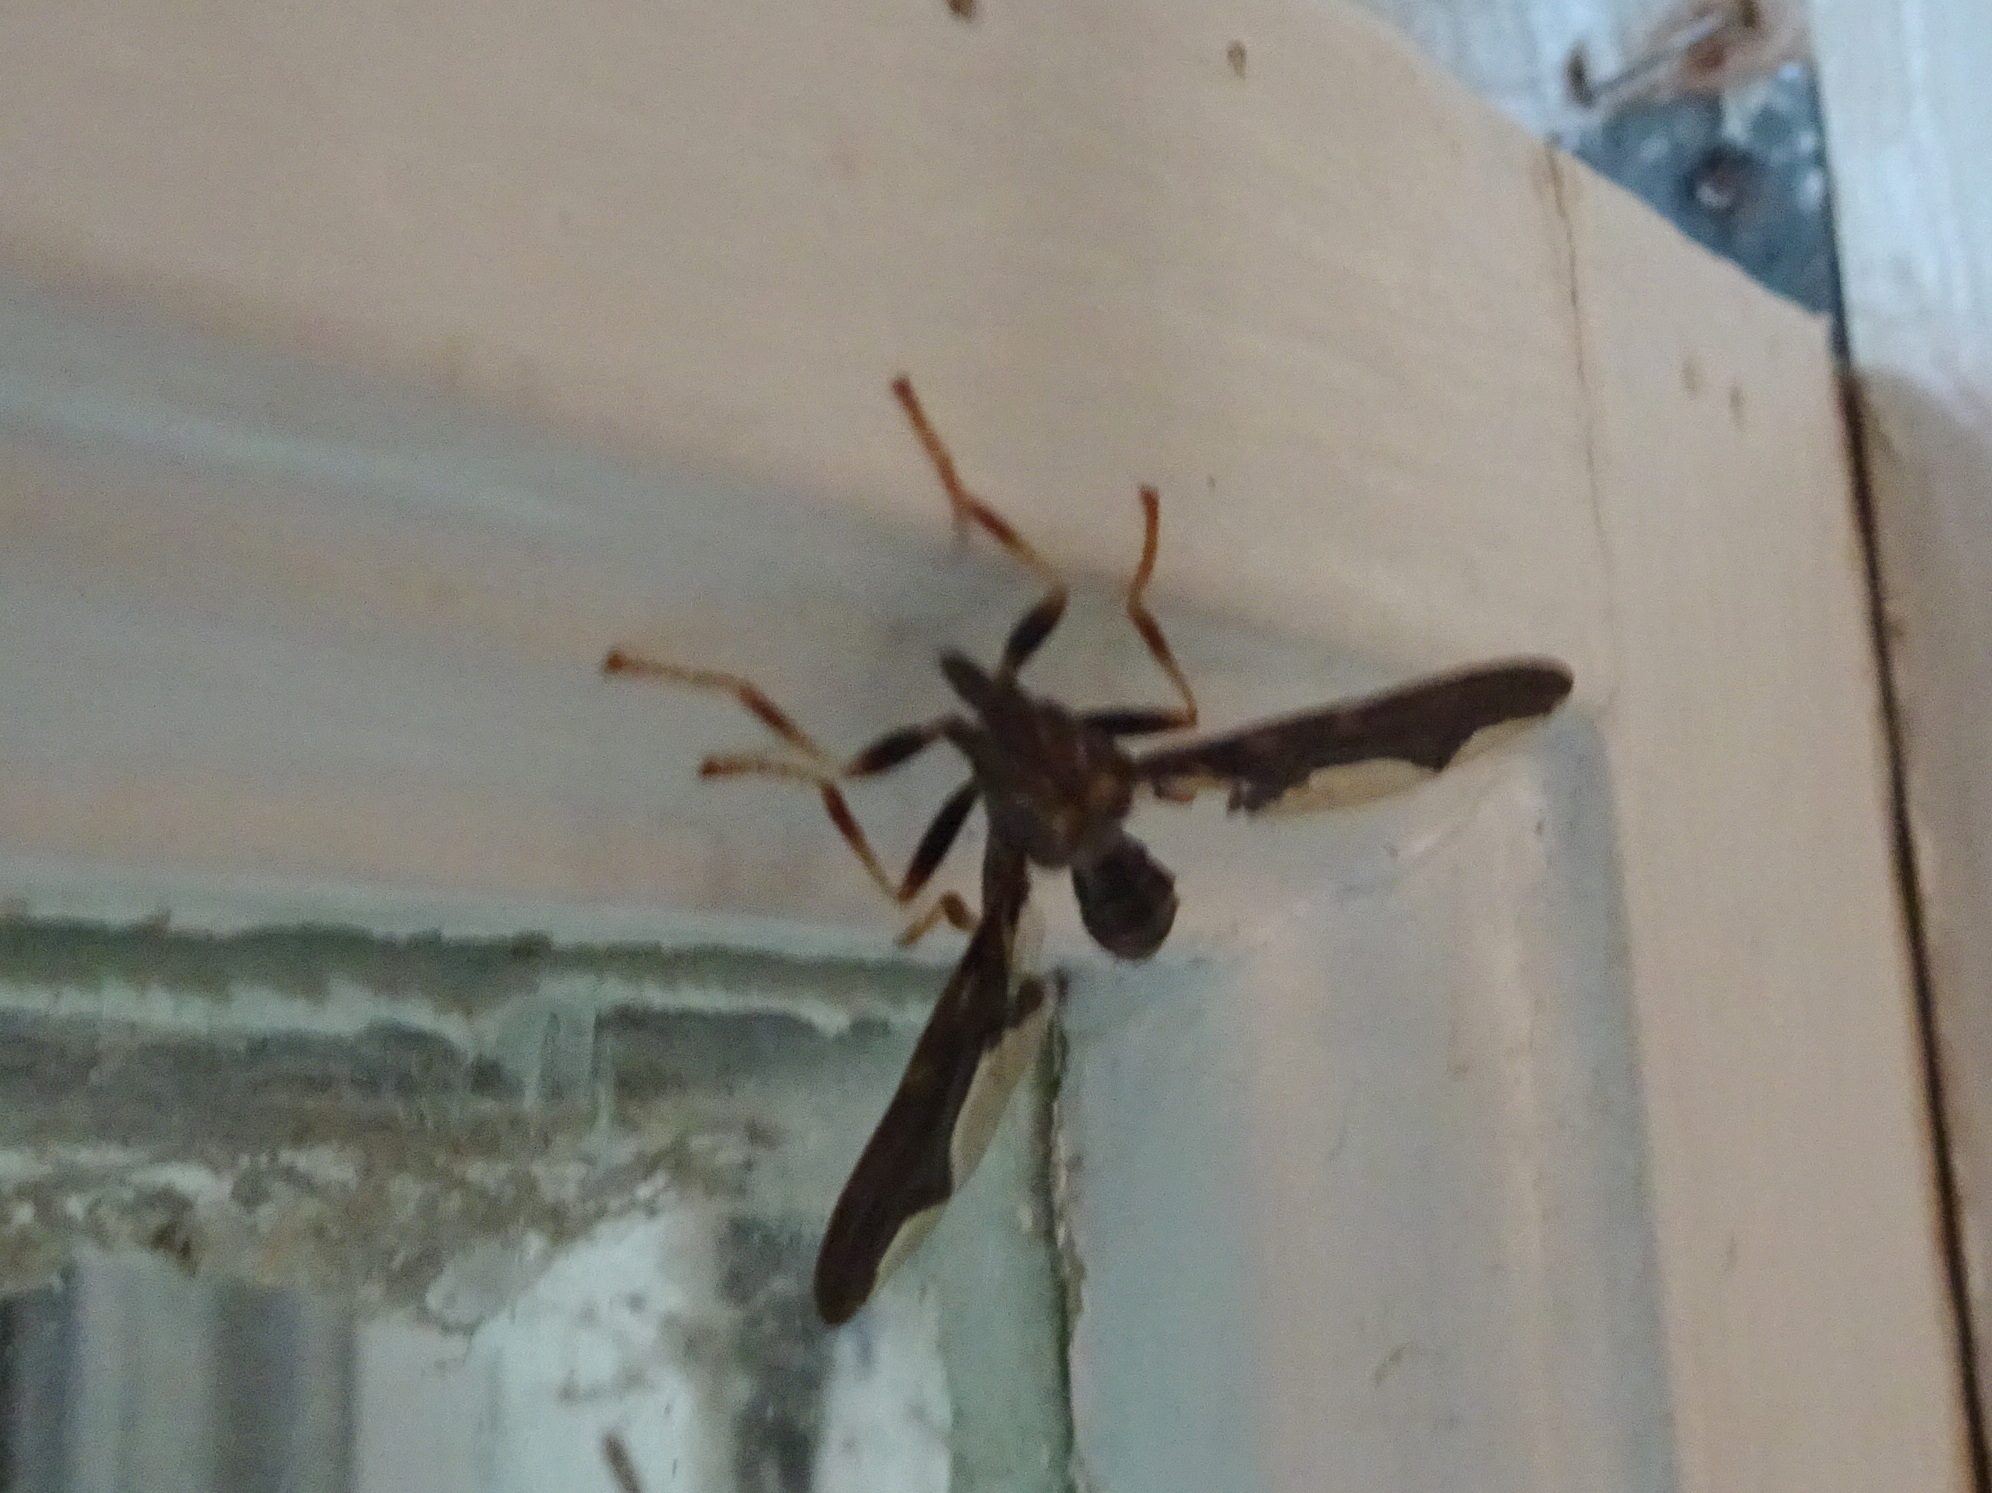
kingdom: Animalia
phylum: Arthropoda
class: Insecta
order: Diptera
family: Pyrgotidae
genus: Pyrgota
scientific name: Pyrgota undata
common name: Waved light fly
